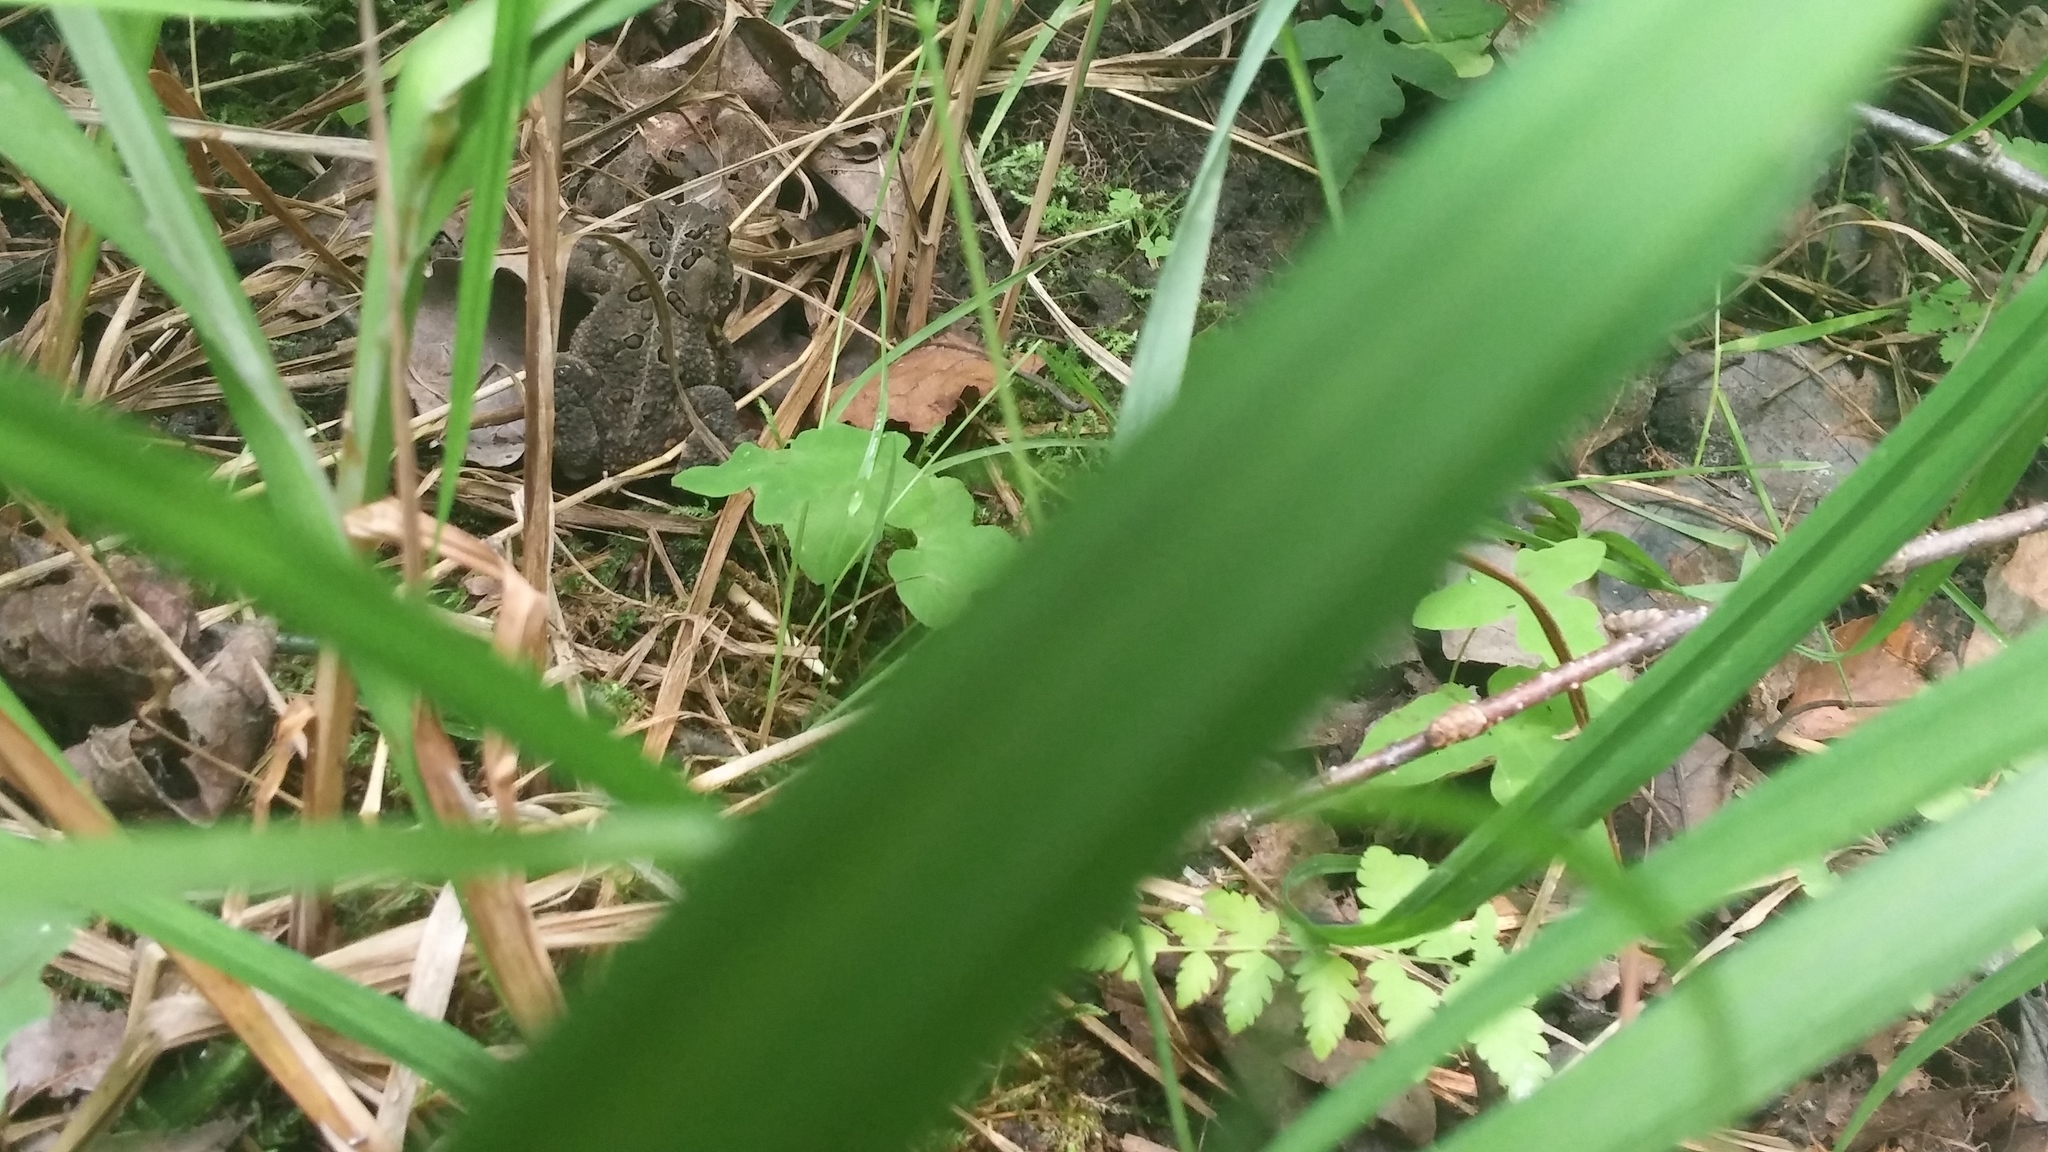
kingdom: Animalia
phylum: Chordata
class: Amphibia
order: Anura
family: Bufonidae
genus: Anaxyrus
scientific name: Anaxyrus americanus
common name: American toad
